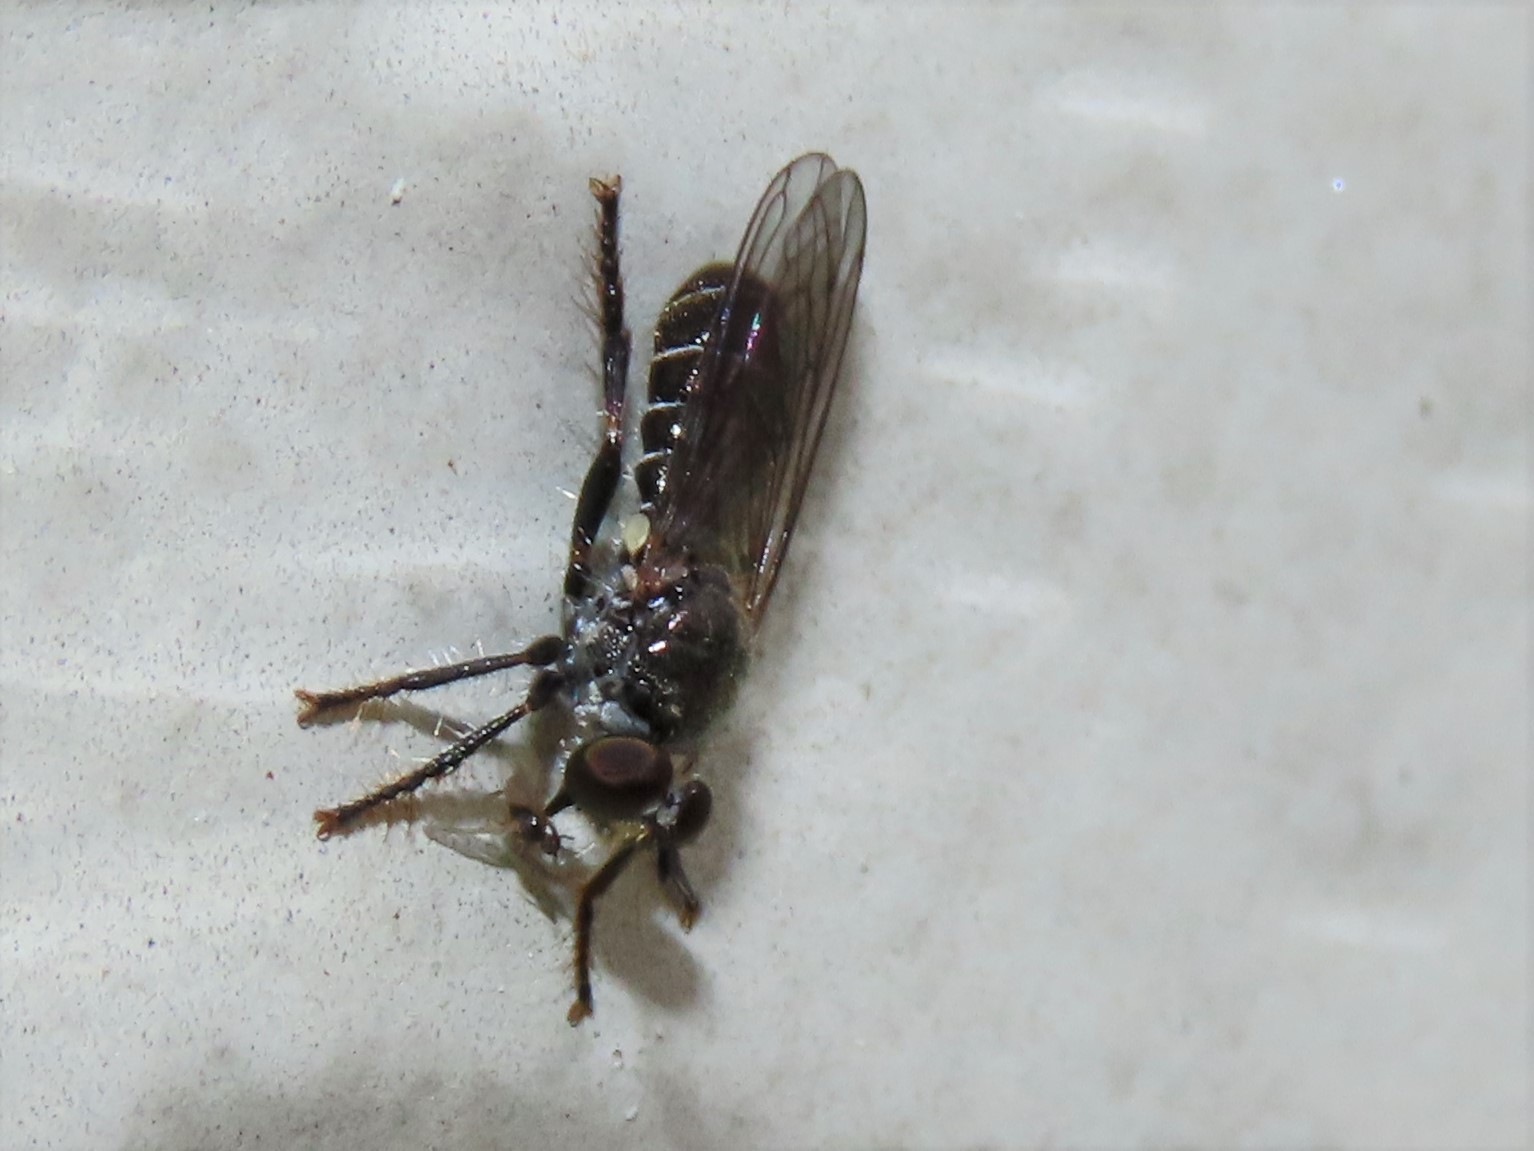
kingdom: Animalia
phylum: Arthropoda
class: Insecta
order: Diptera
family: Asilidae
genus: Atomosia
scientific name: Atomosia puella
